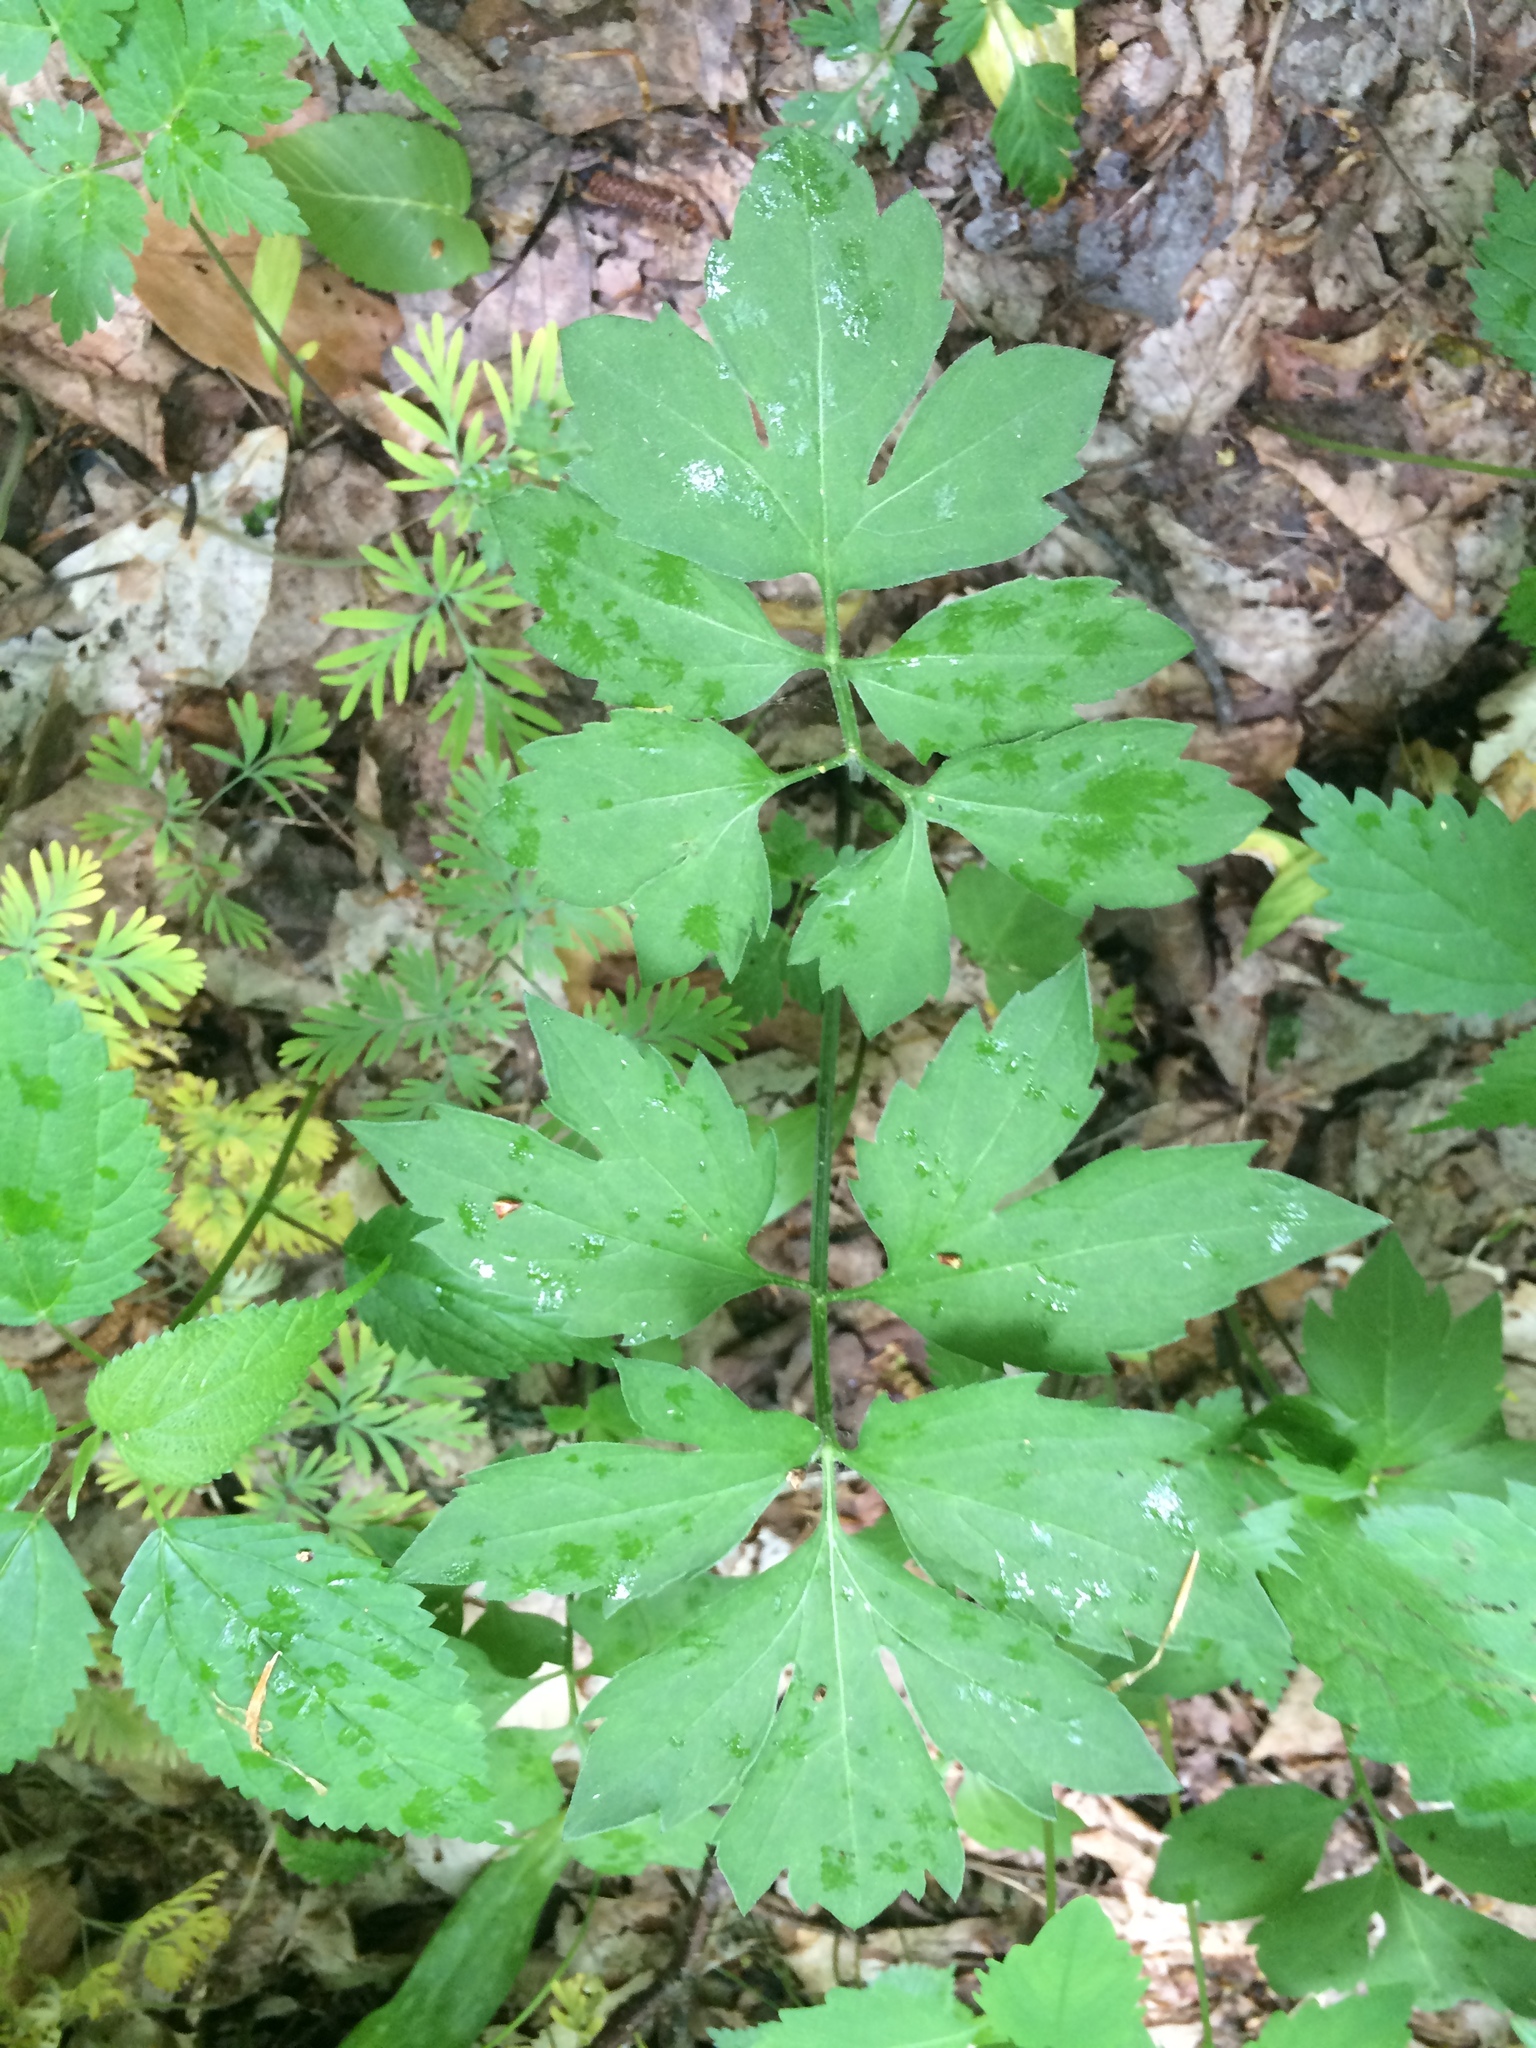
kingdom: Plantae
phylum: Tracheophyta
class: Magnoliopsida
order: Boraginales
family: Hydrophyllaceae
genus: Hydrophyllum
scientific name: Hydrophyllum virginianum
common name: Virginia waterleaf
